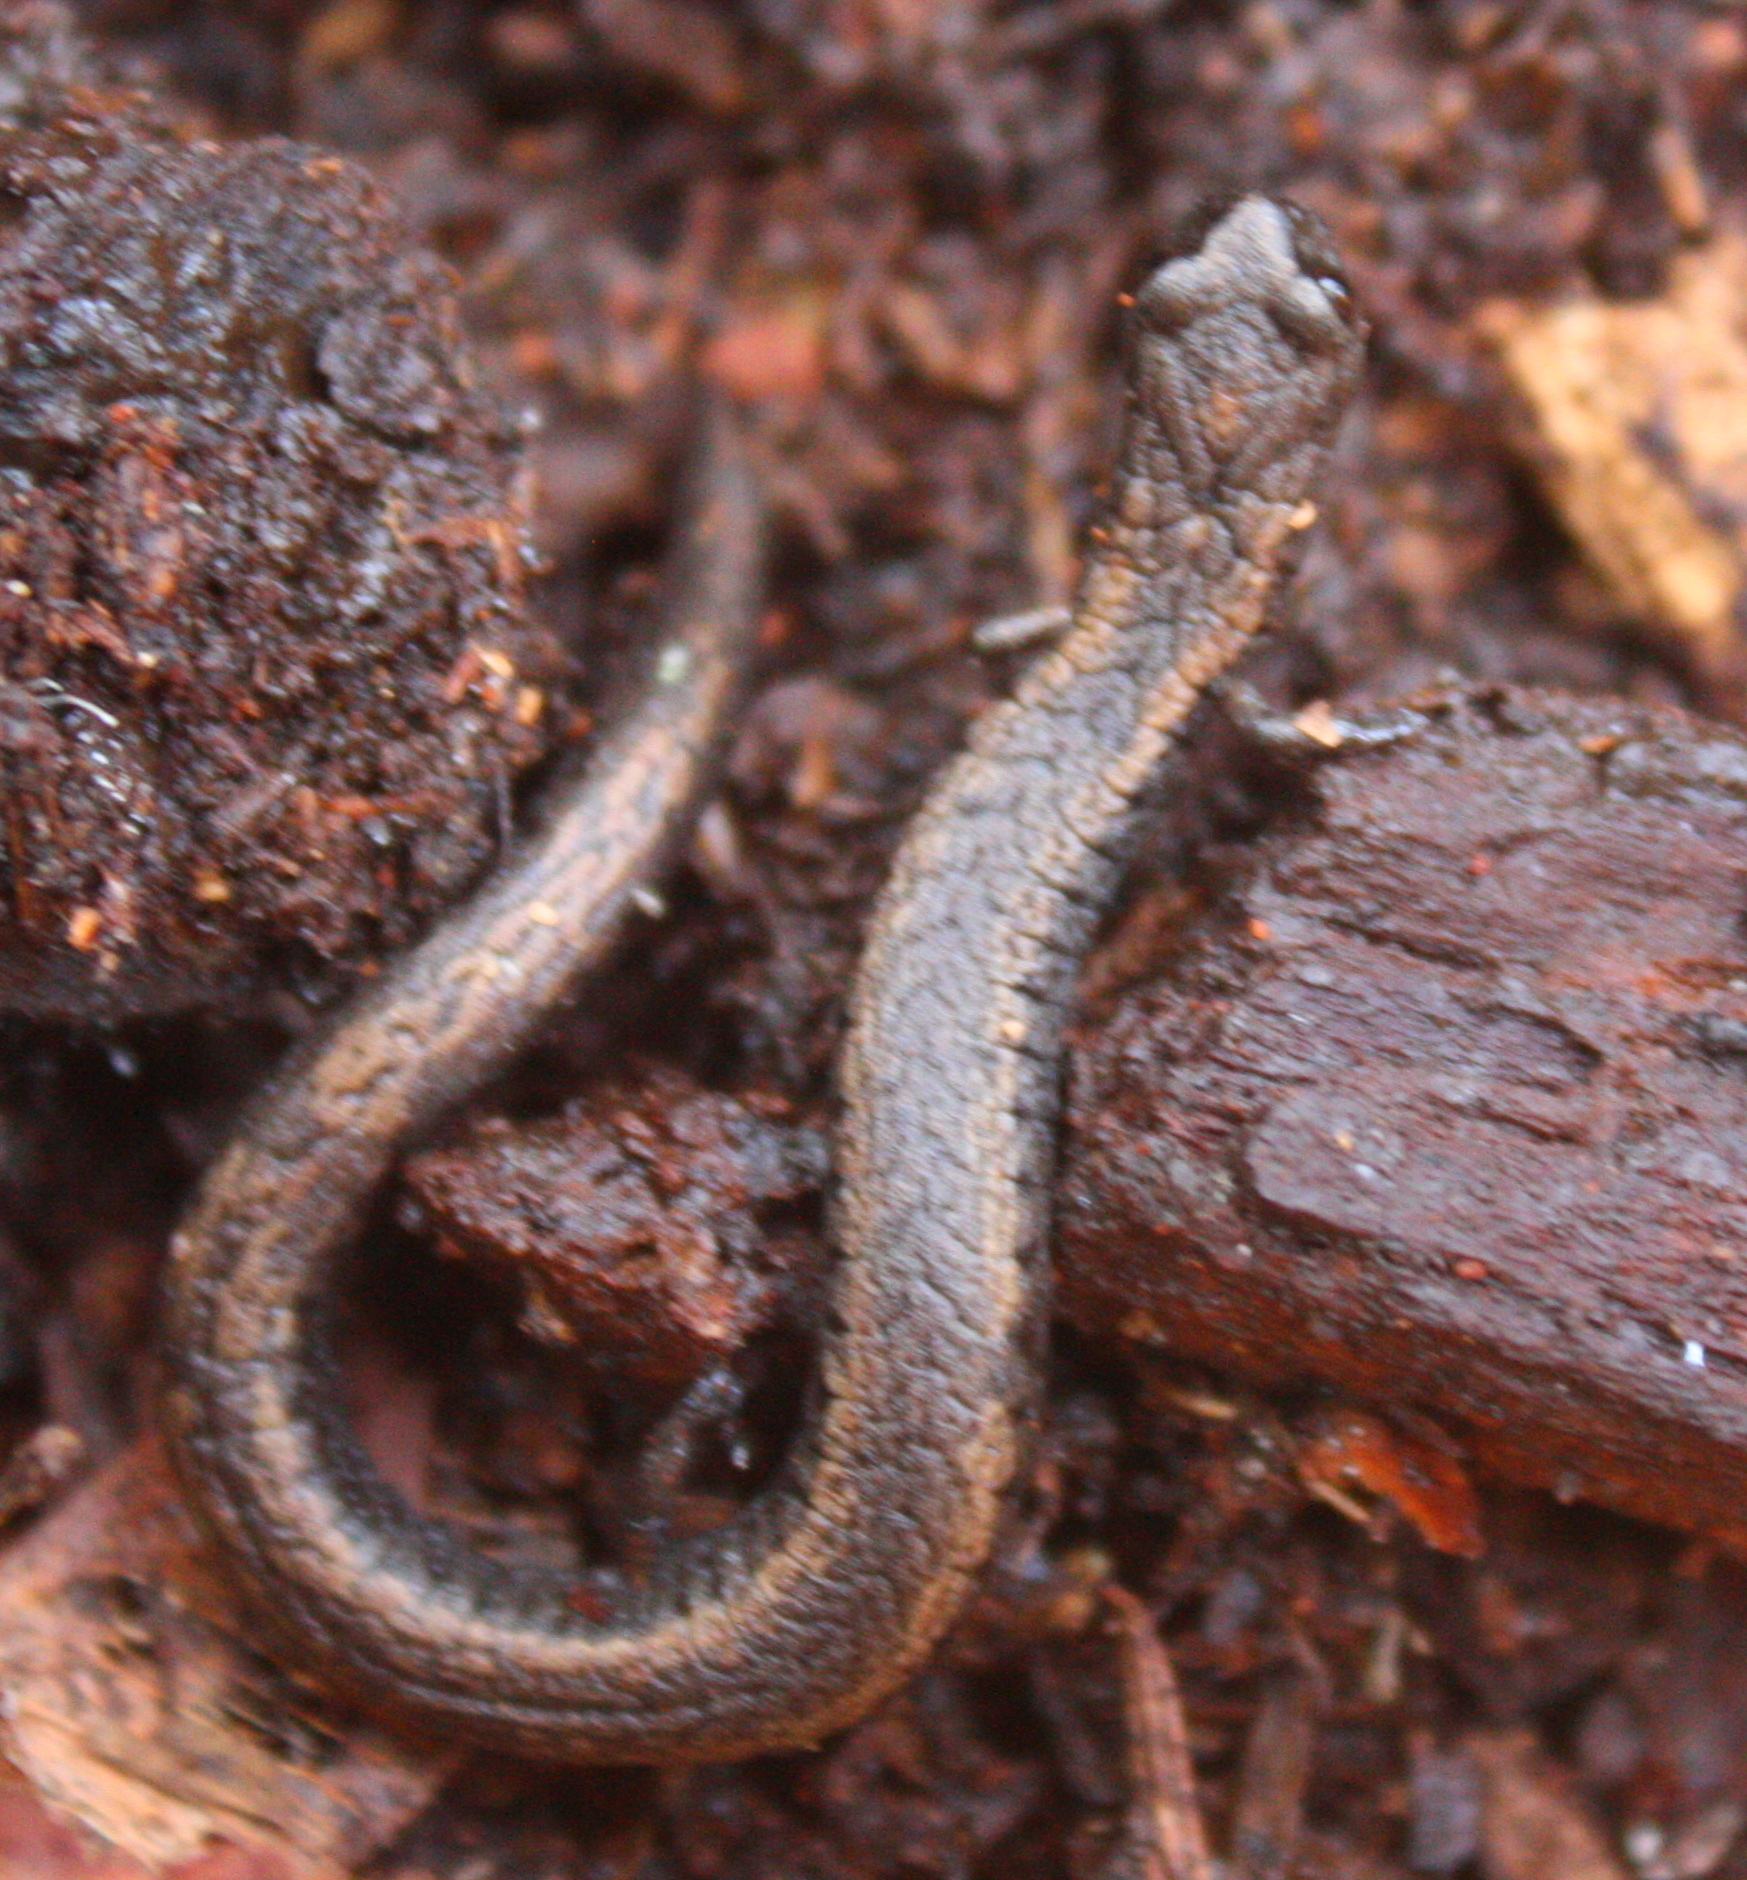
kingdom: Animalia
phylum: Chordata
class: Amphibia
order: Caudata
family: Plethodontidae
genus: Batrachoseps
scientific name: Batrachoseps attenuatus
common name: California slender salamander
